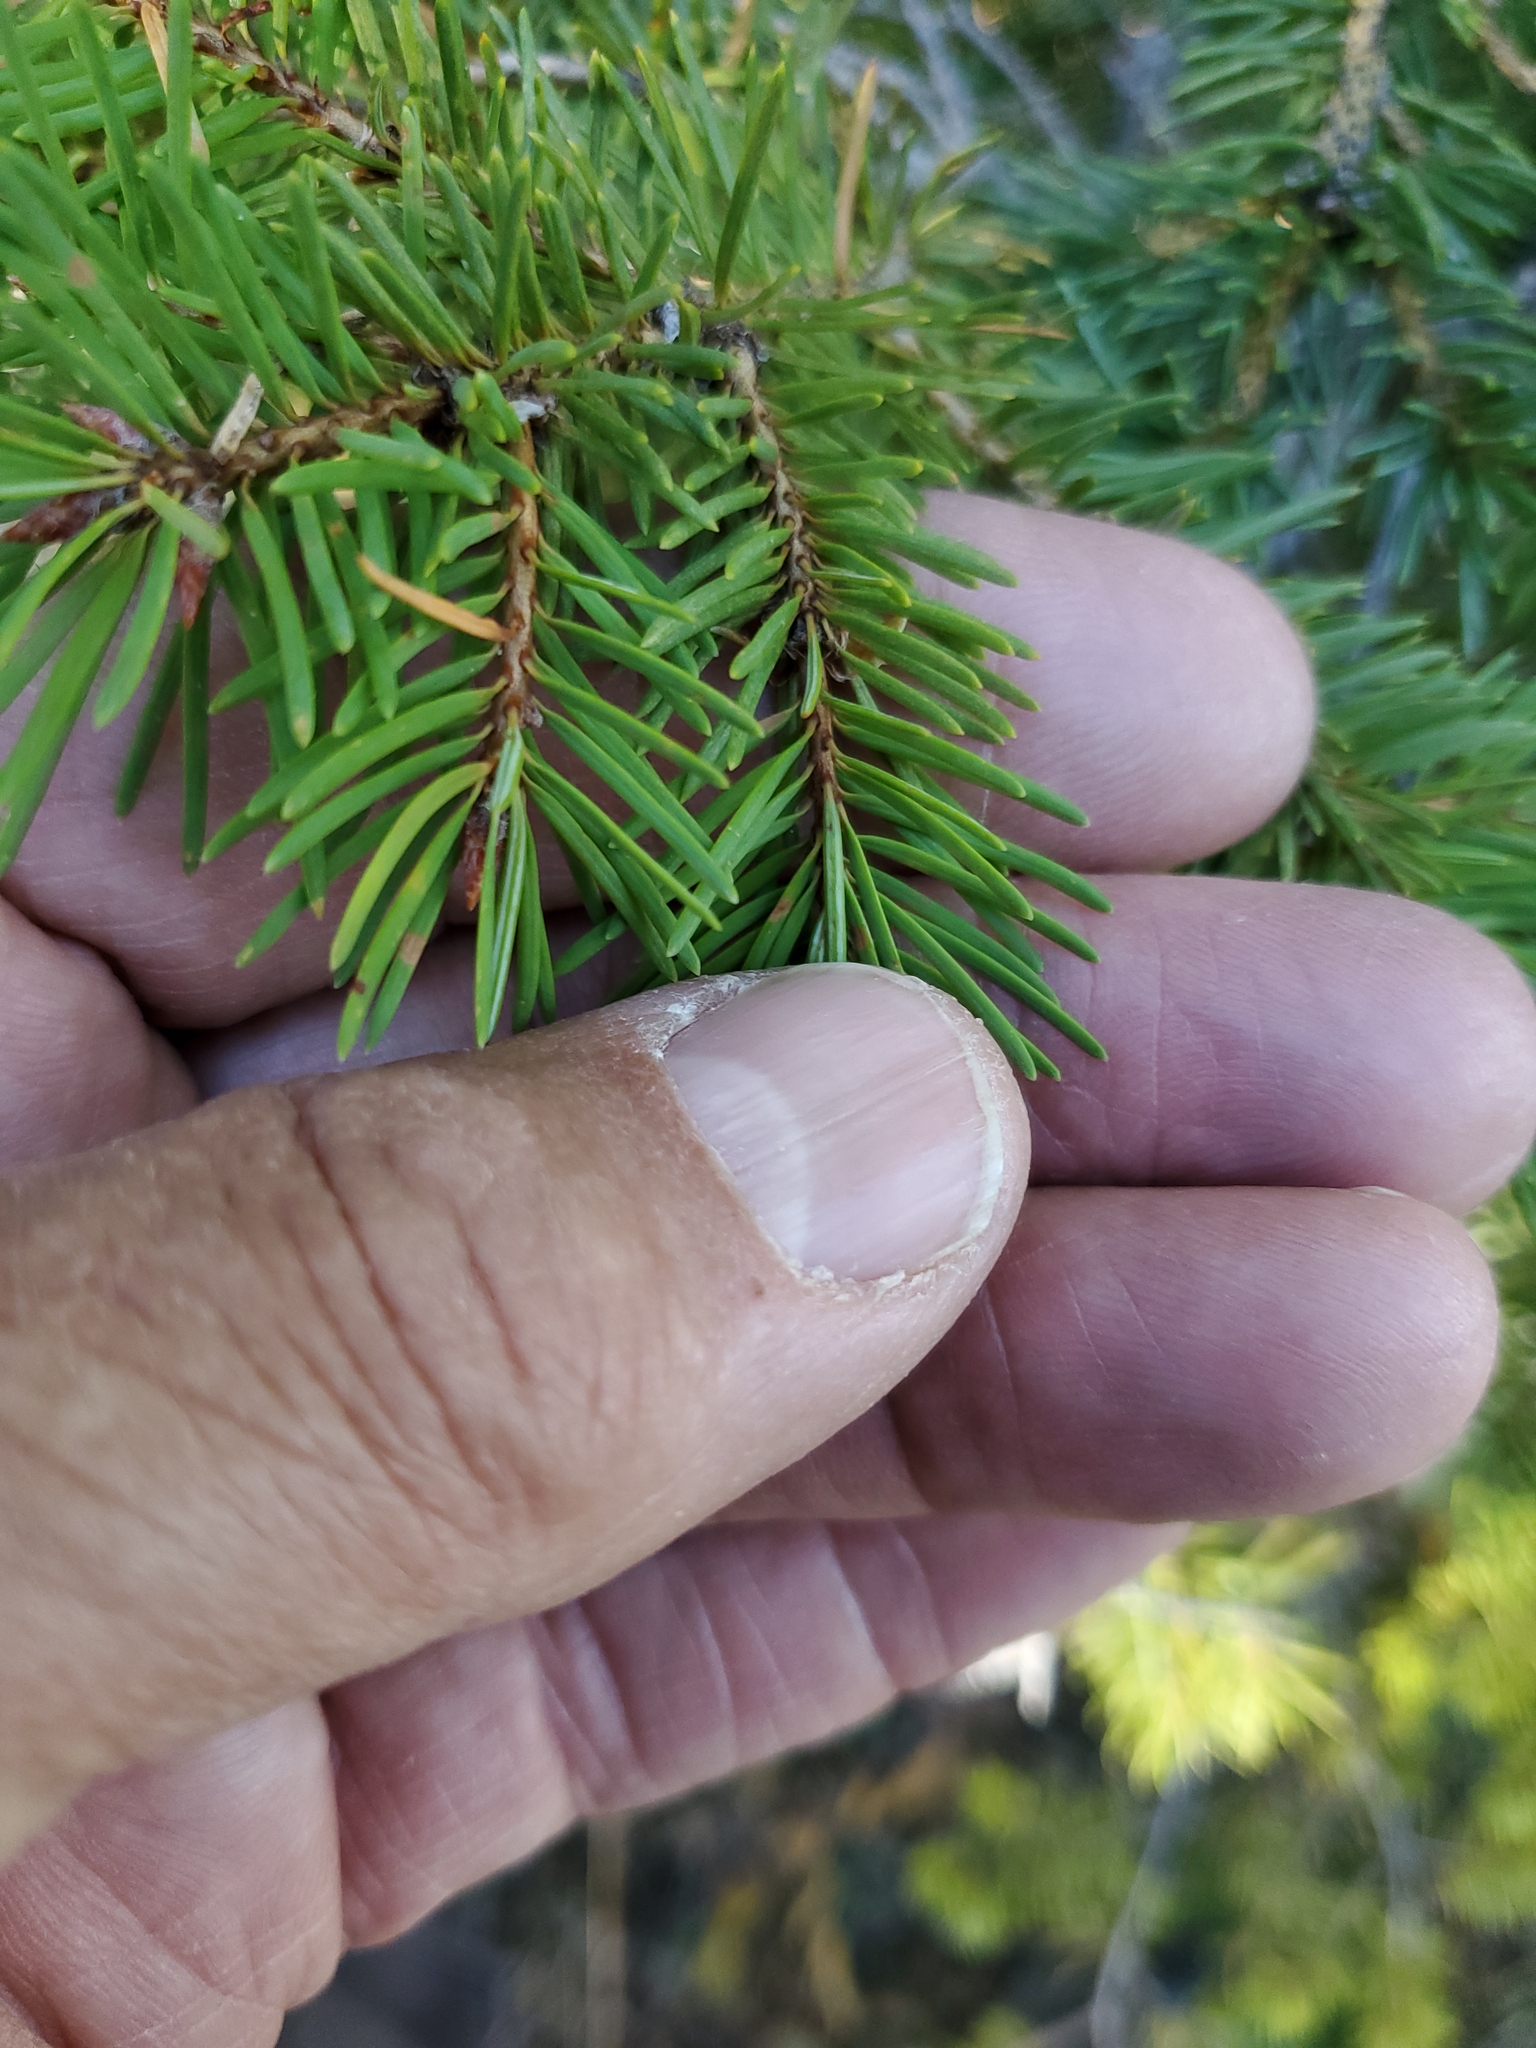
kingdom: Plantae
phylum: Tracheophyta
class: Pinopsida
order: Pinales
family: Pinaceae
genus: Pseudotsuga
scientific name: Pseudotsuga menziesii
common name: Douglas fir
